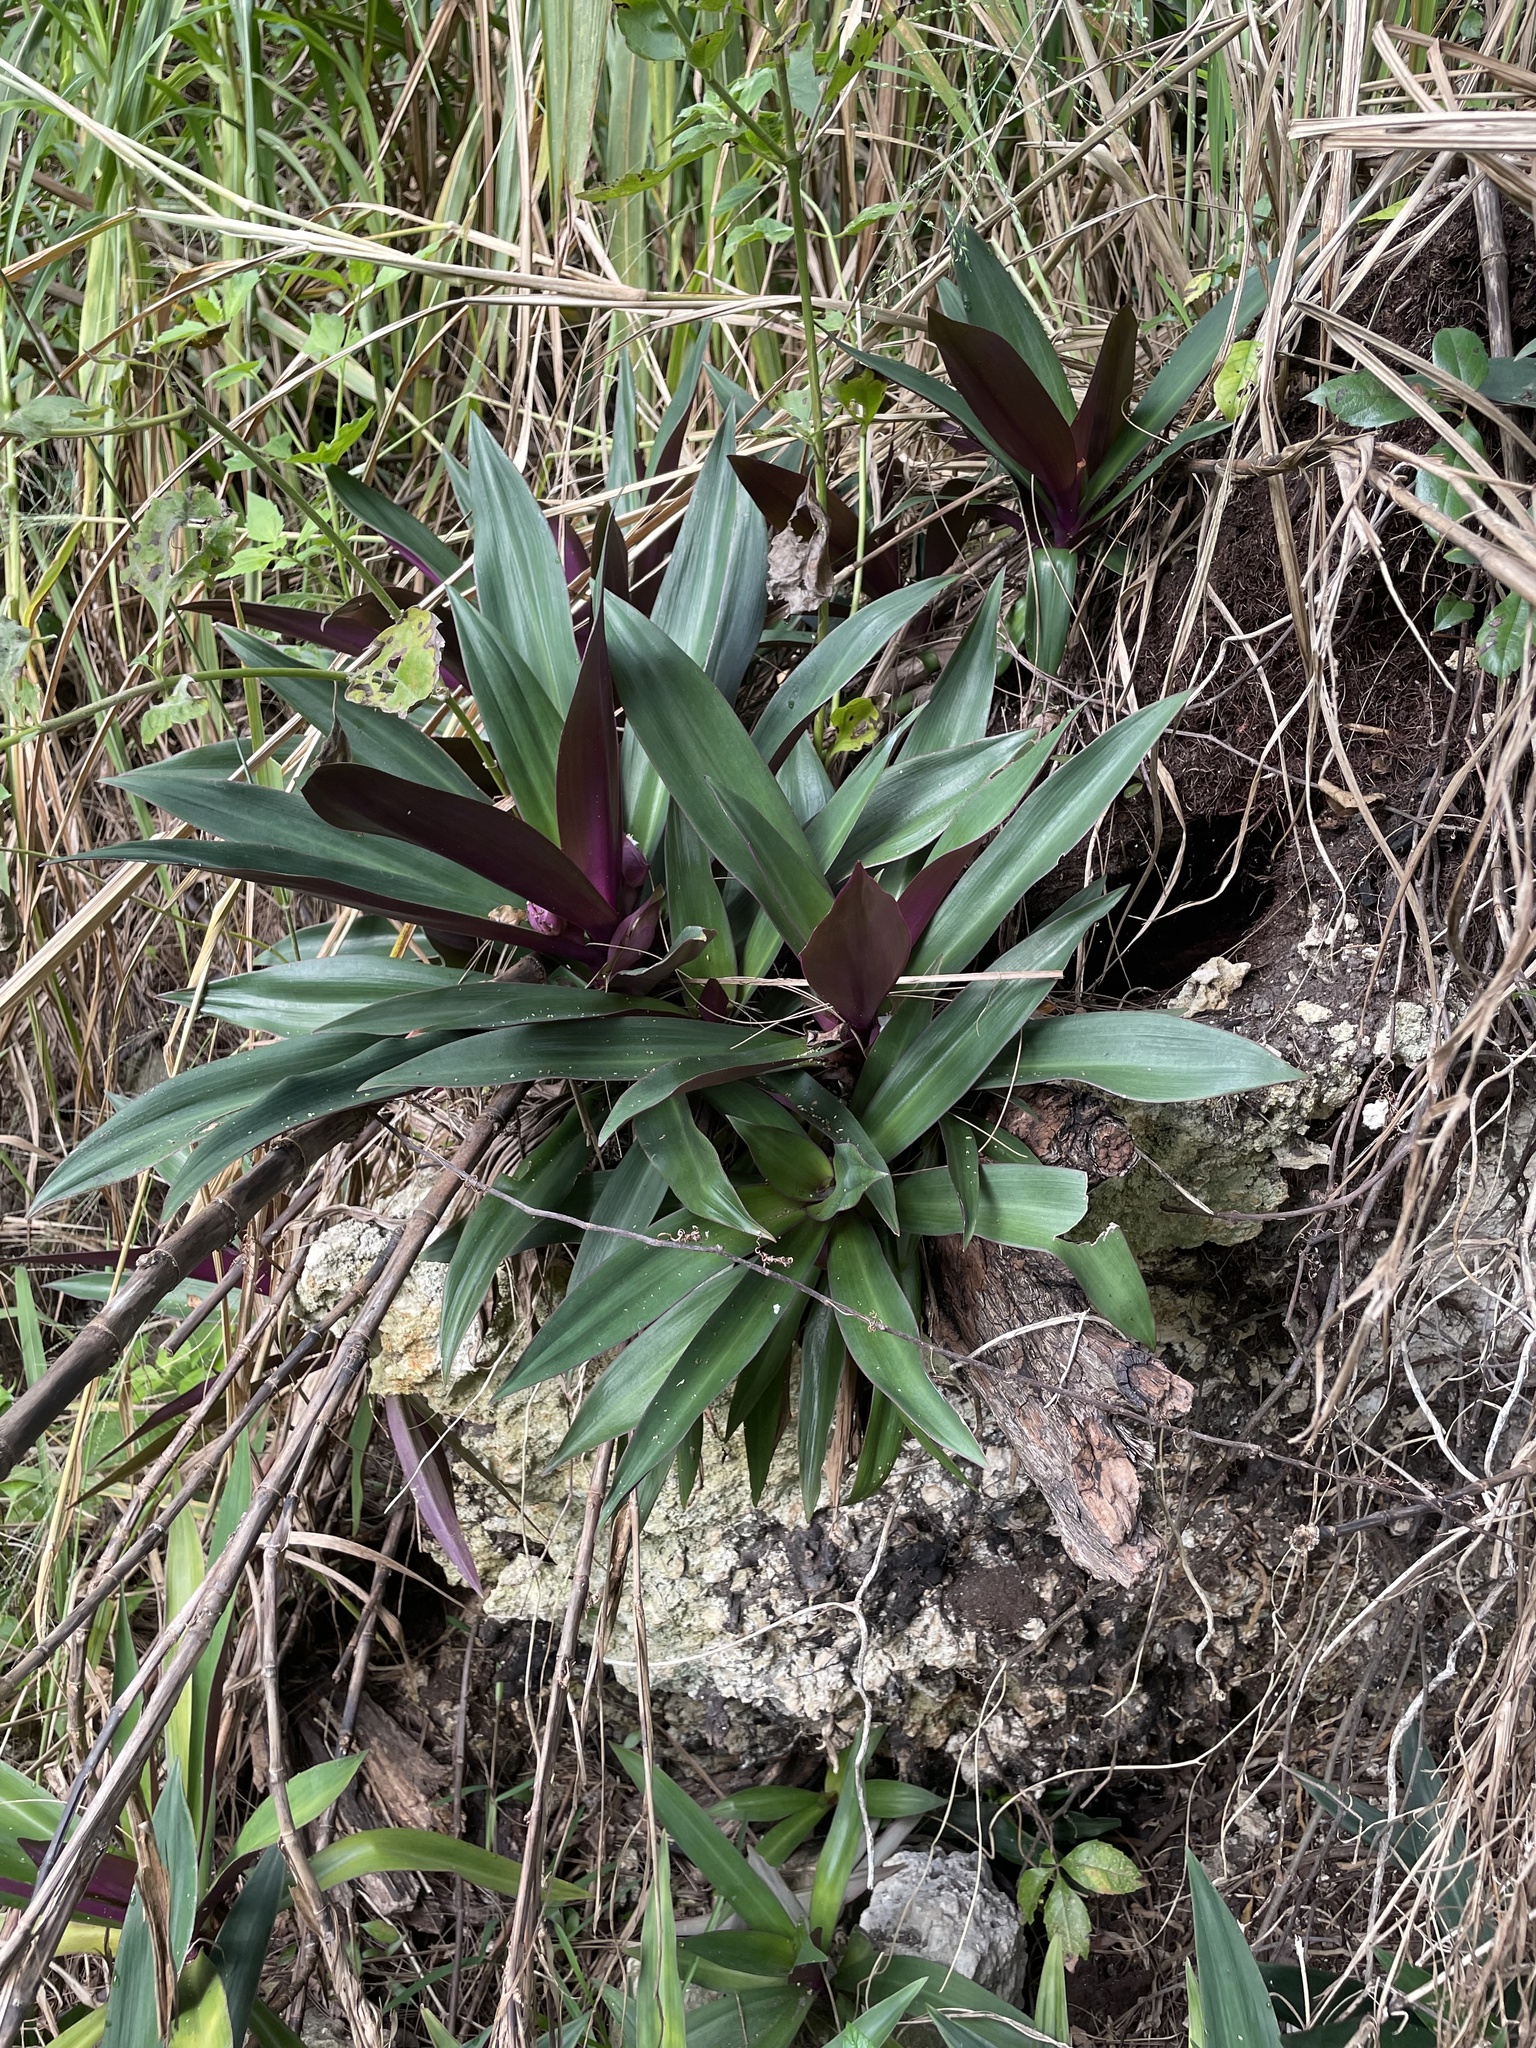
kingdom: Plantae
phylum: Tracheophyta
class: Liliopsida
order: Commelinales
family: Commelinaceae
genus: Tradescantia
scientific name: Tradescantia spathacea
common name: Boatlily
